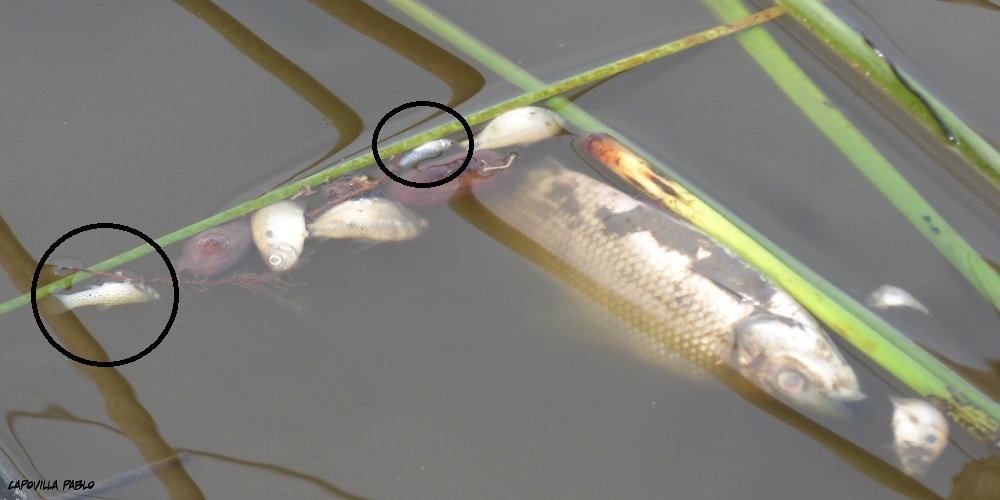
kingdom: Animalia
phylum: Chordata
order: Cyprinodontiformes
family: Anablepidae
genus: Jenynsia
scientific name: Jenynsia lineata
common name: Onesided livebearer
